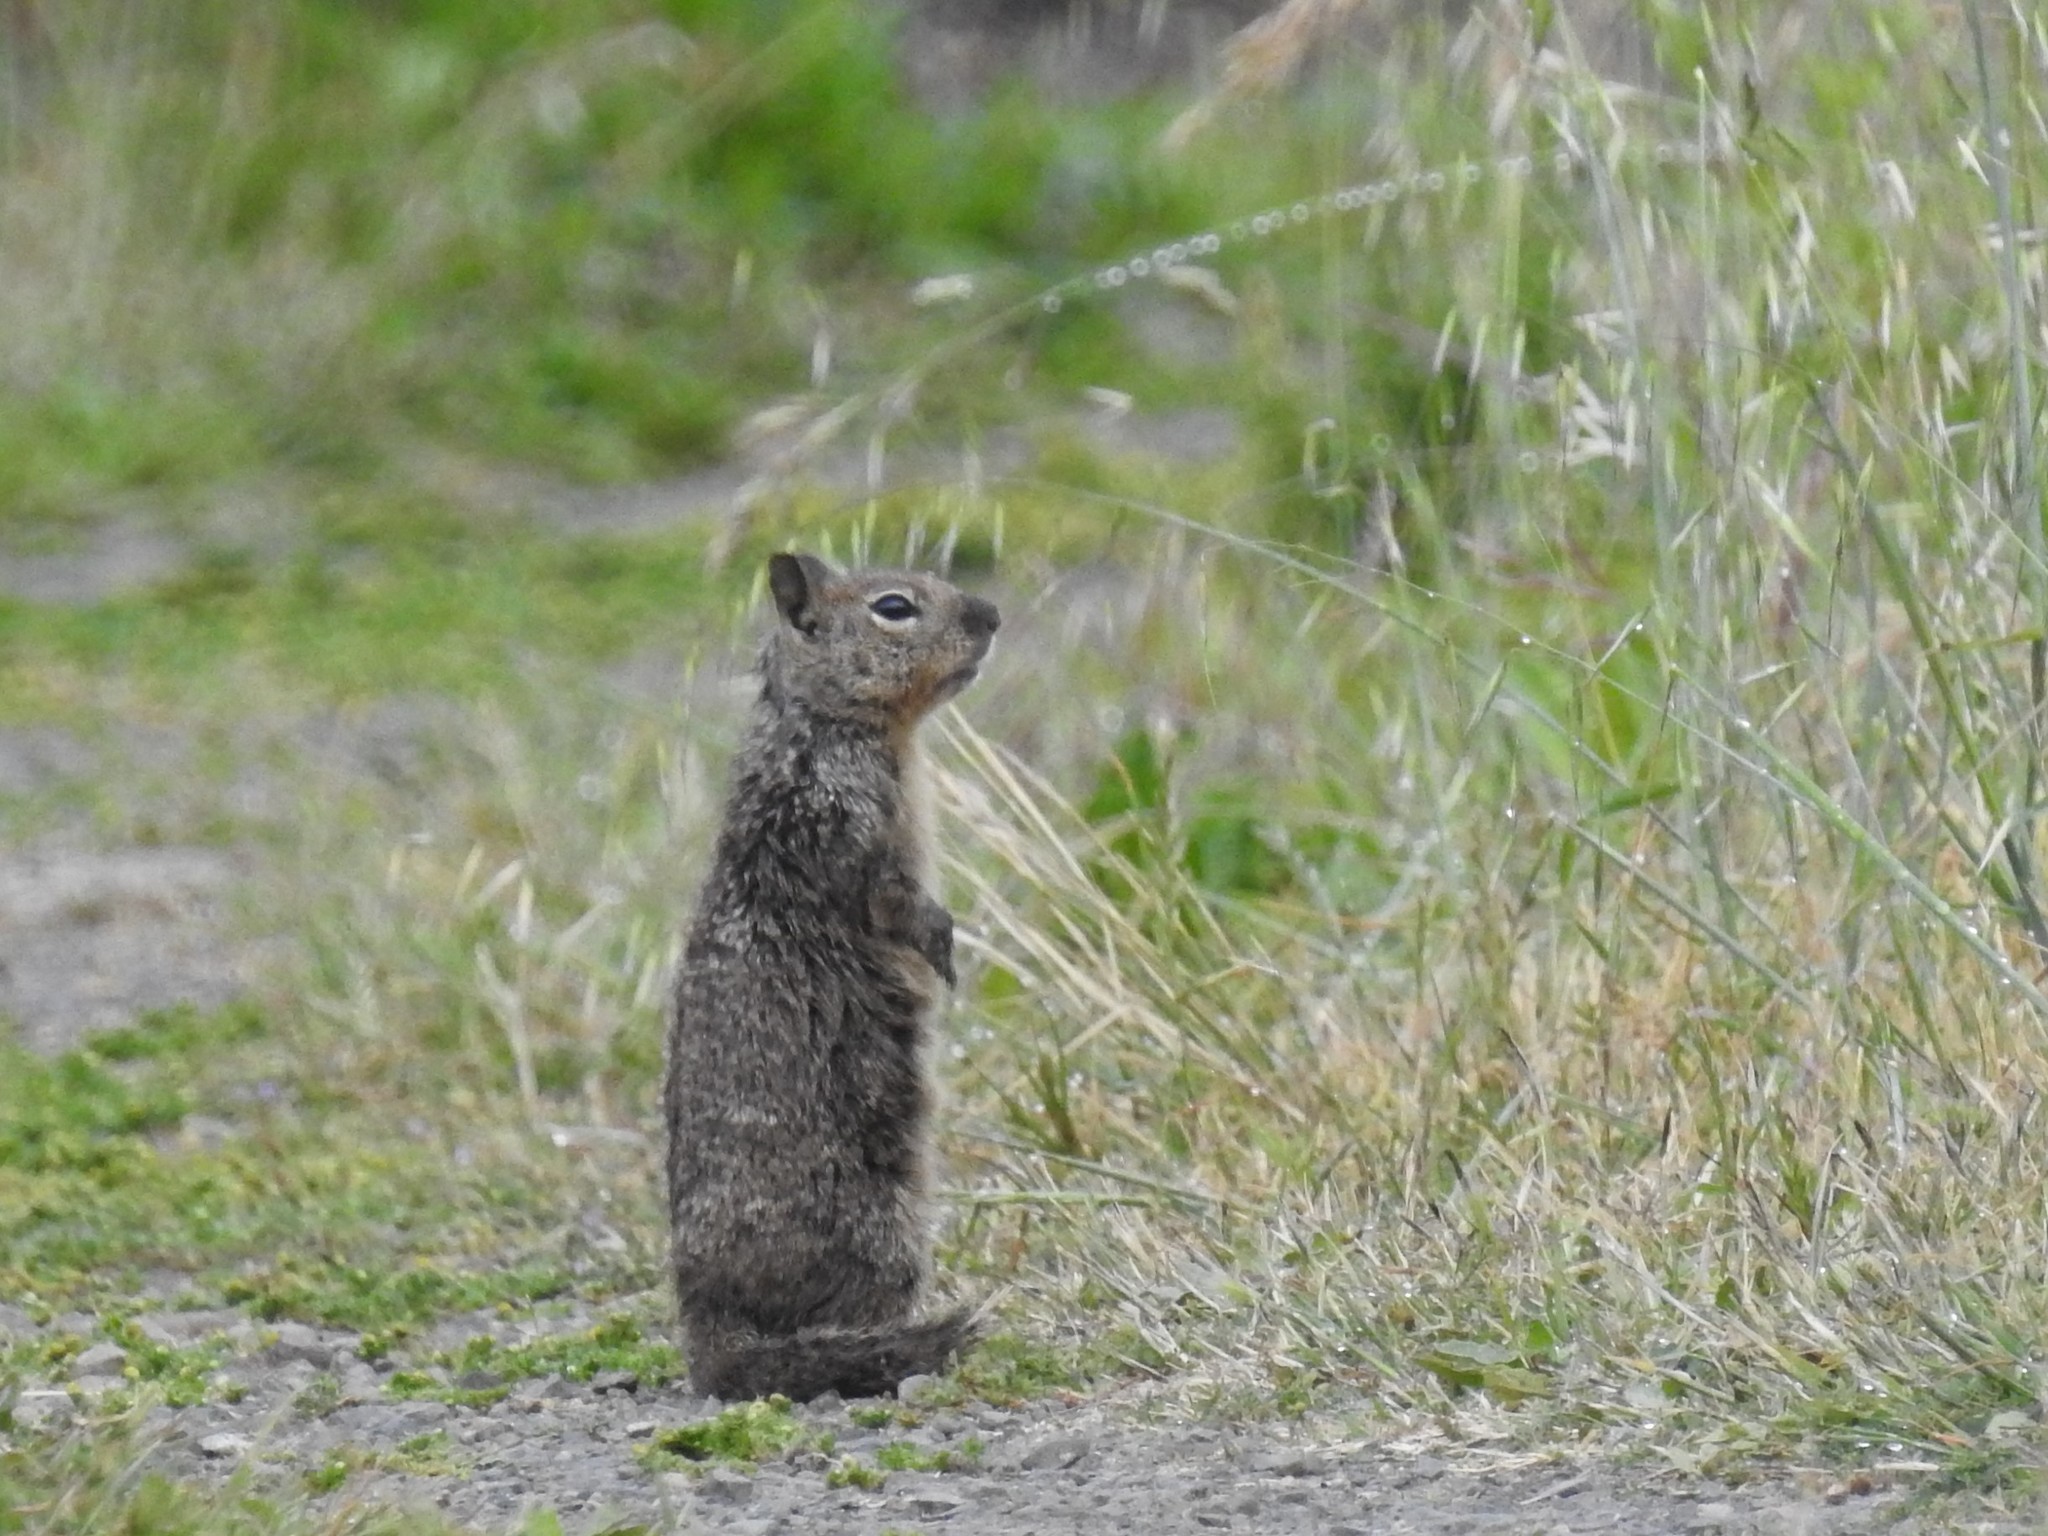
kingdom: Animalia
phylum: Chordata
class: Mammalia
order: Rodentia
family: Sciuridae
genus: Otospermophilus
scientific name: Otospermophilus beecheyi
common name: California ground squirrel
